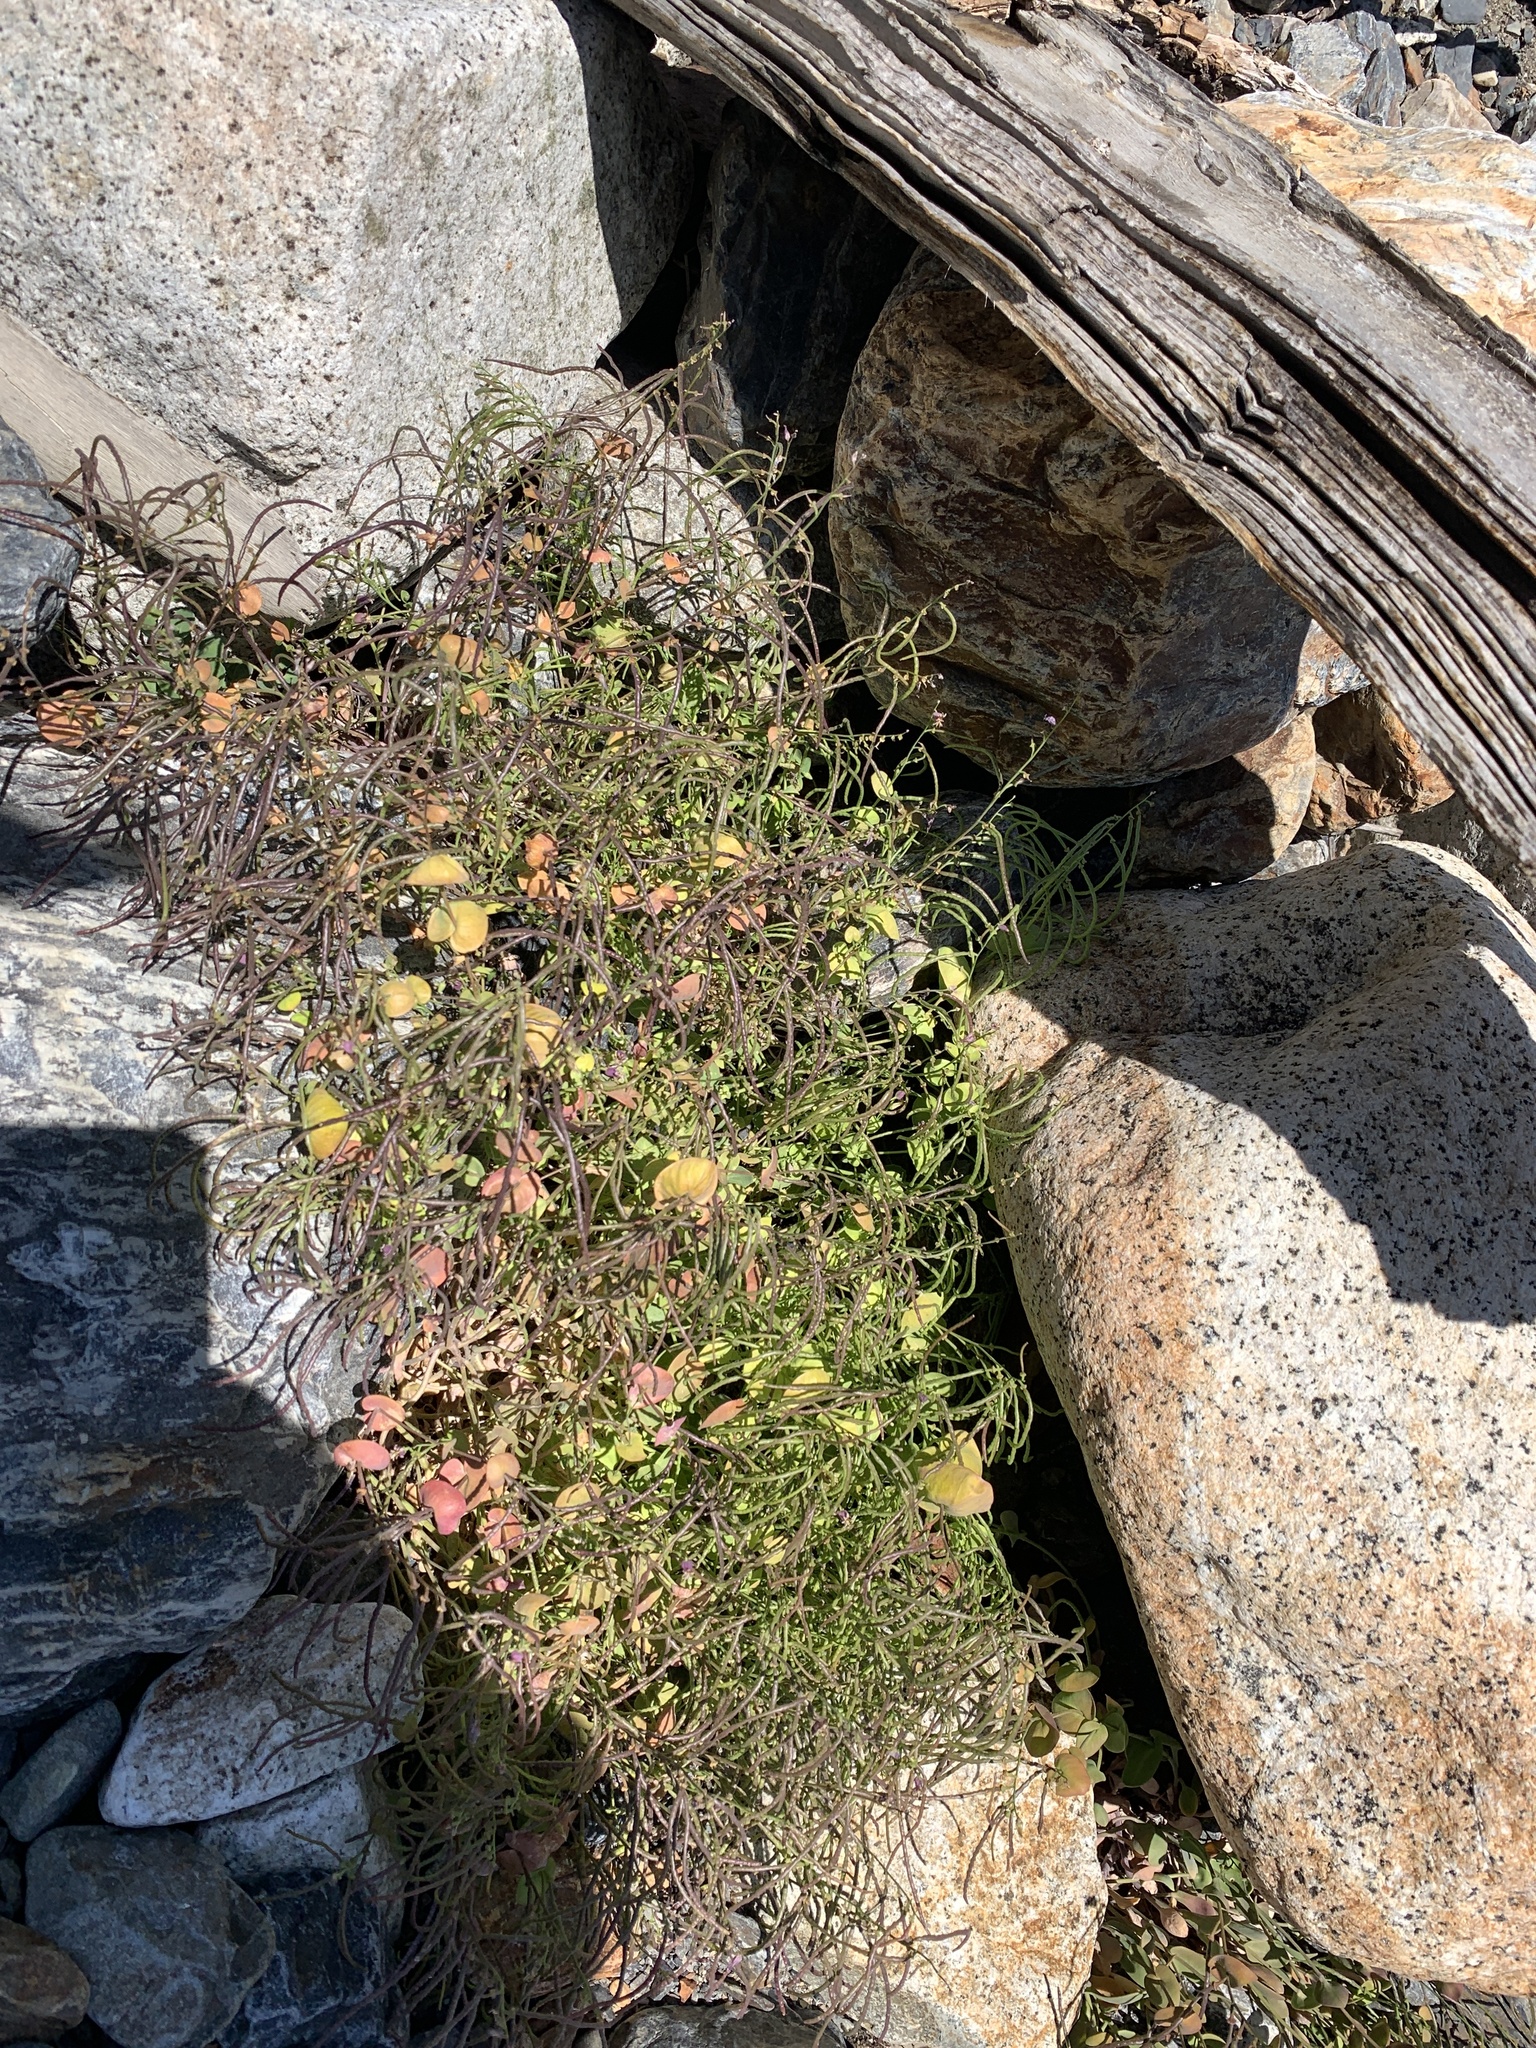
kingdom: Plantae
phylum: Tracheophyta
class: Magnoliopsida
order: Brassicales
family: Brassicaceae
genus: Streptanthus
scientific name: Streptanthus tortuosus
